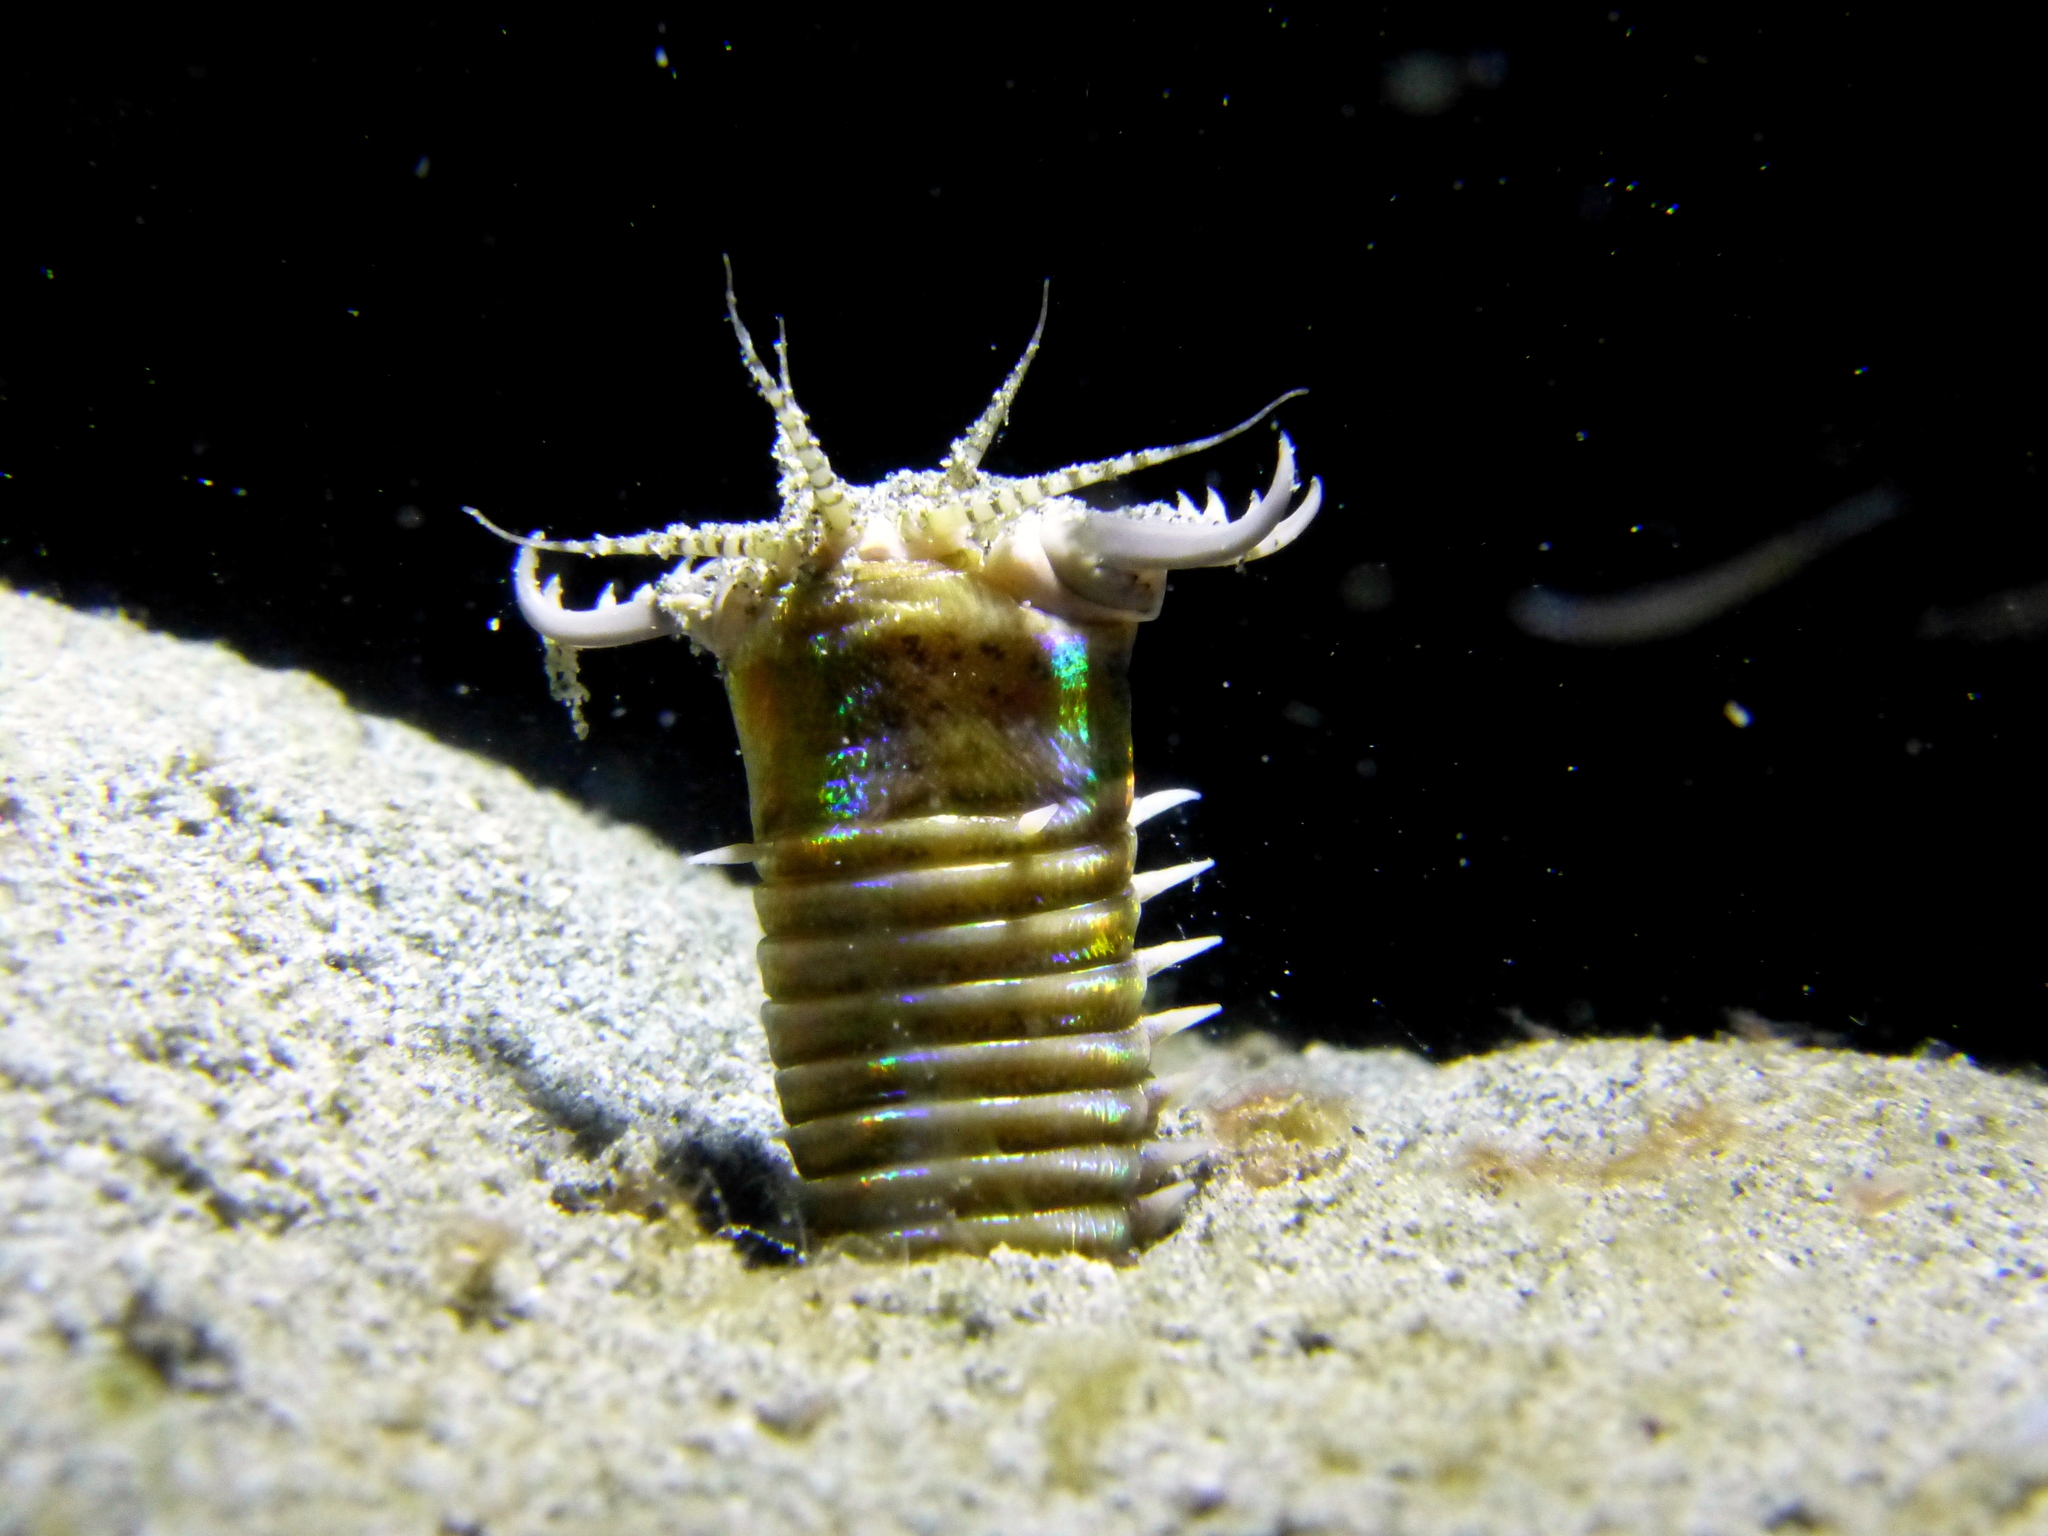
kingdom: Animalia
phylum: Annelida
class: Polychaeta
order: Eunicida
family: Eunicidae
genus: Eunice
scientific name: Eunice aphroditois
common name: Wonder-worm
